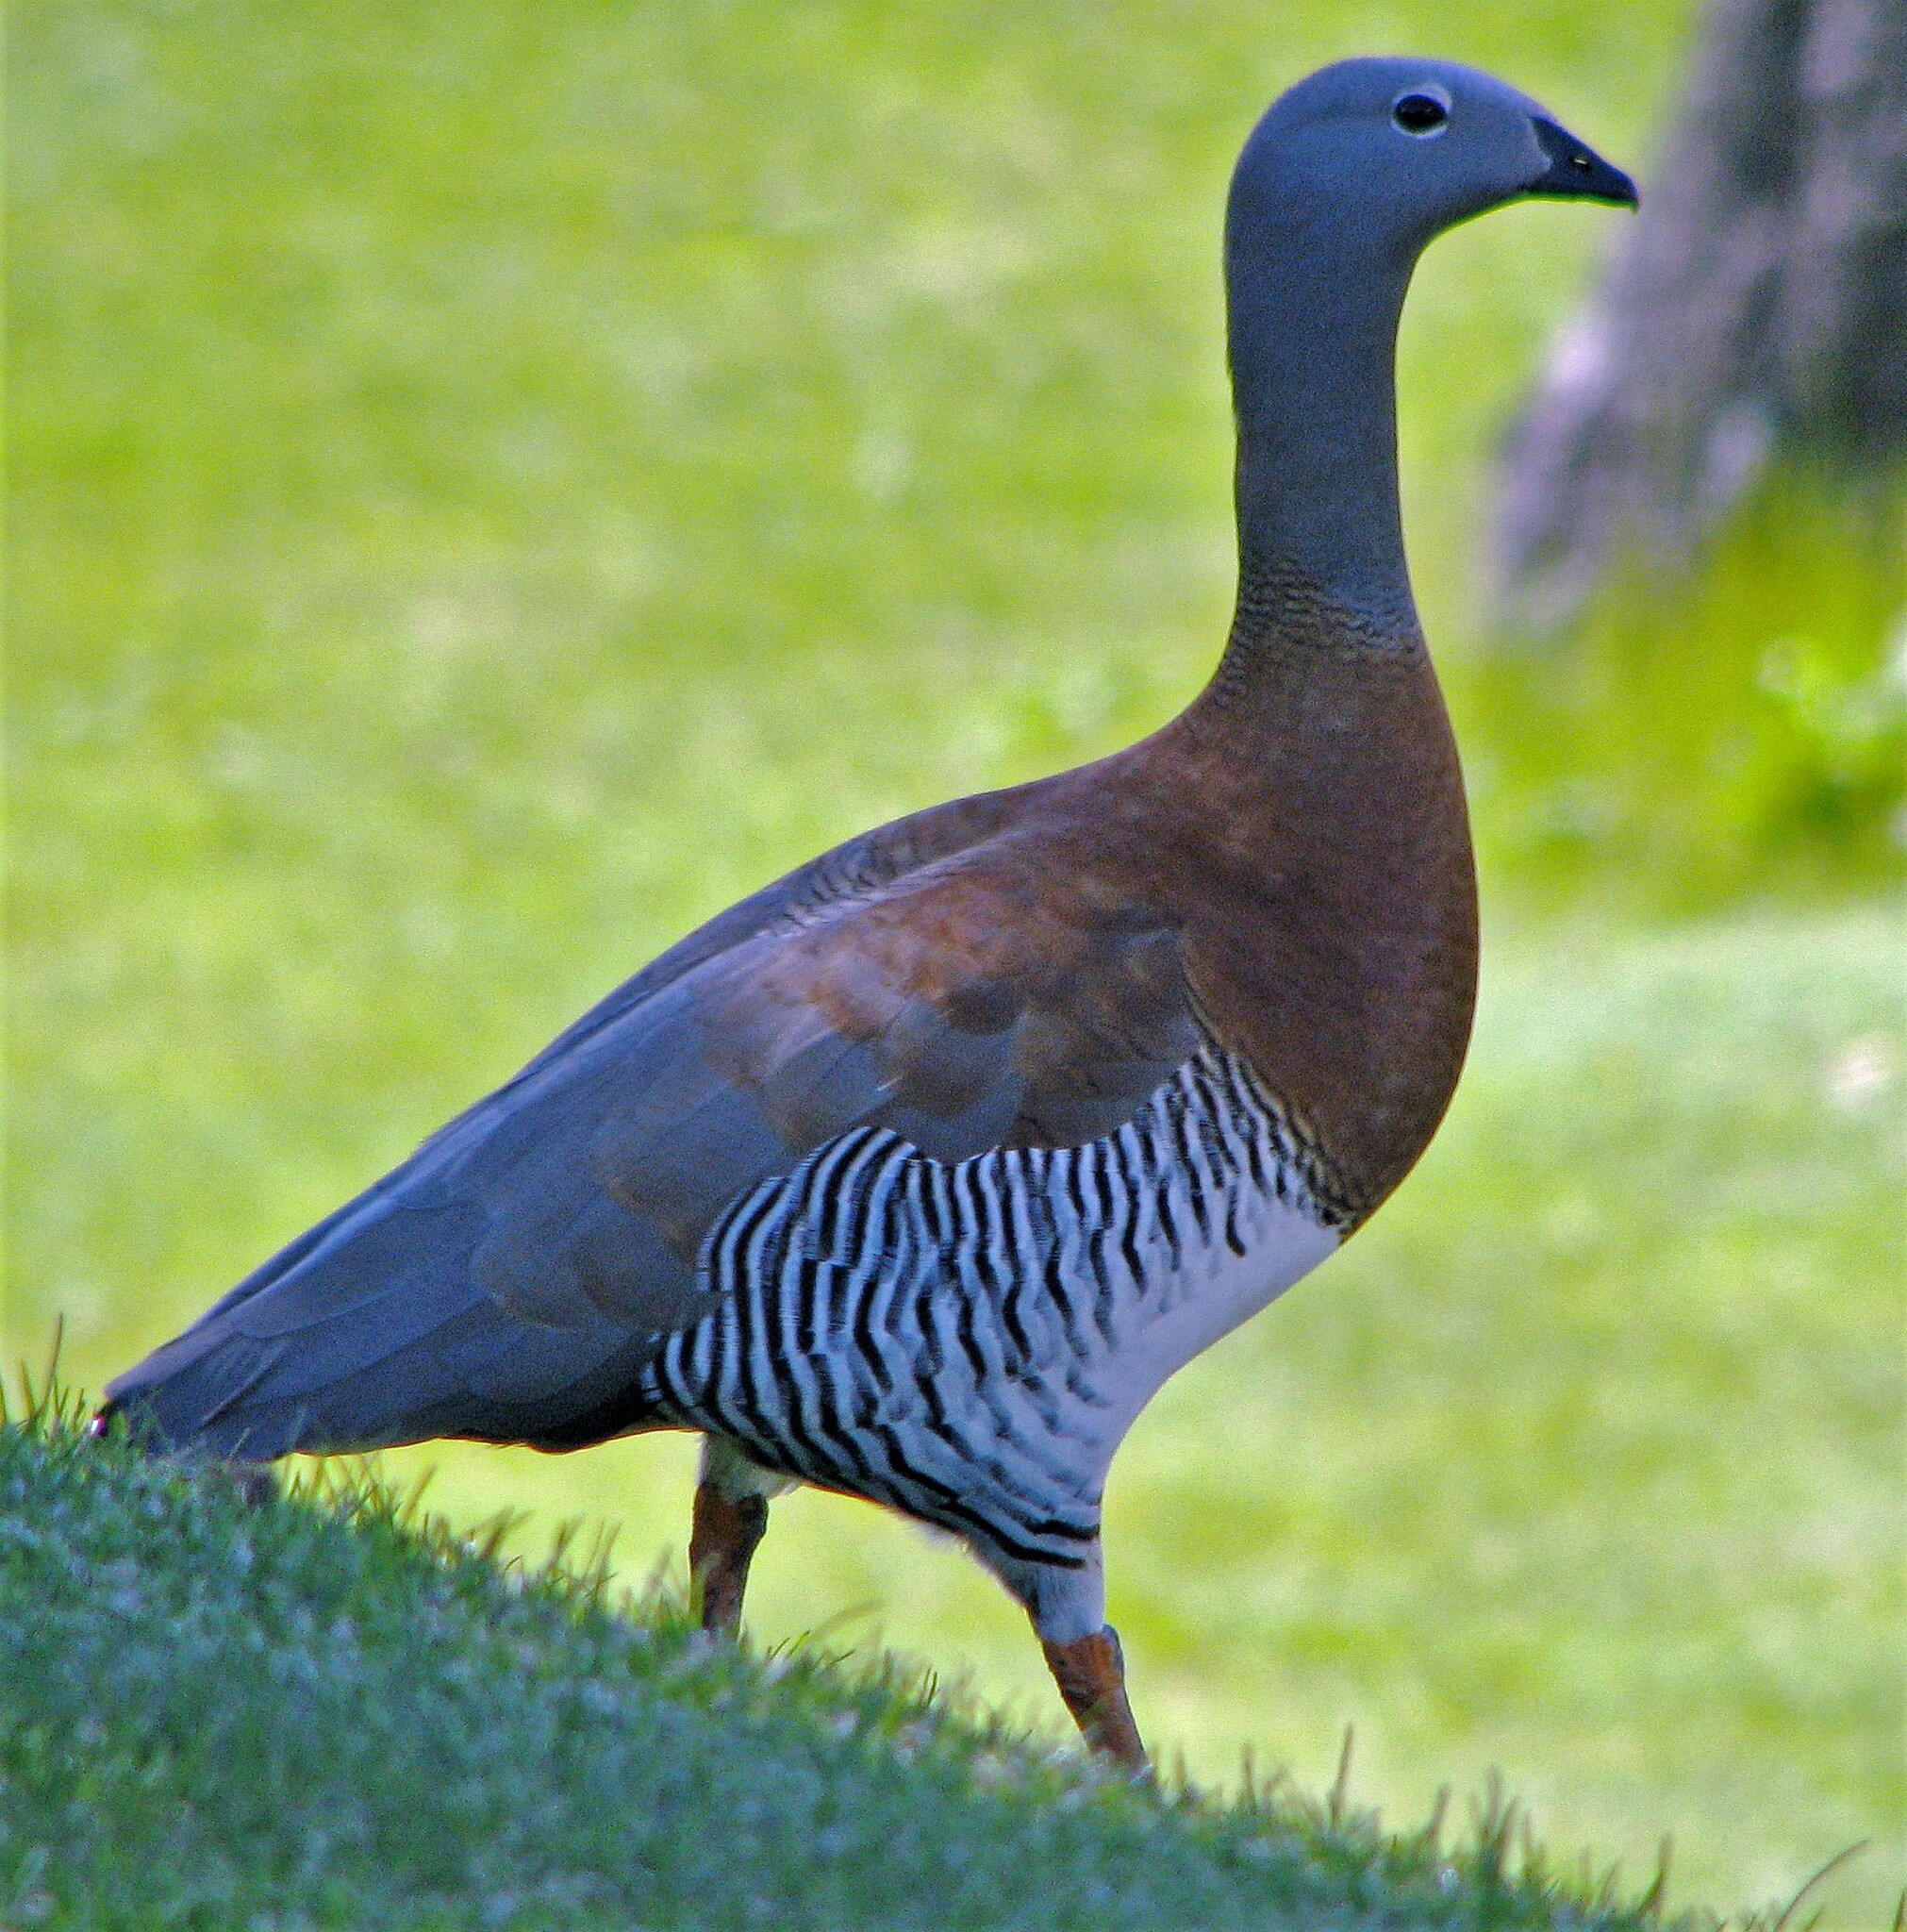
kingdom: Animalia
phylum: Chordata
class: Aves
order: Anseriformes
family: Anatidae
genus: Chloephaga
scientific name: Chloephaga poliocephala
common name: Ashy-headed goose
